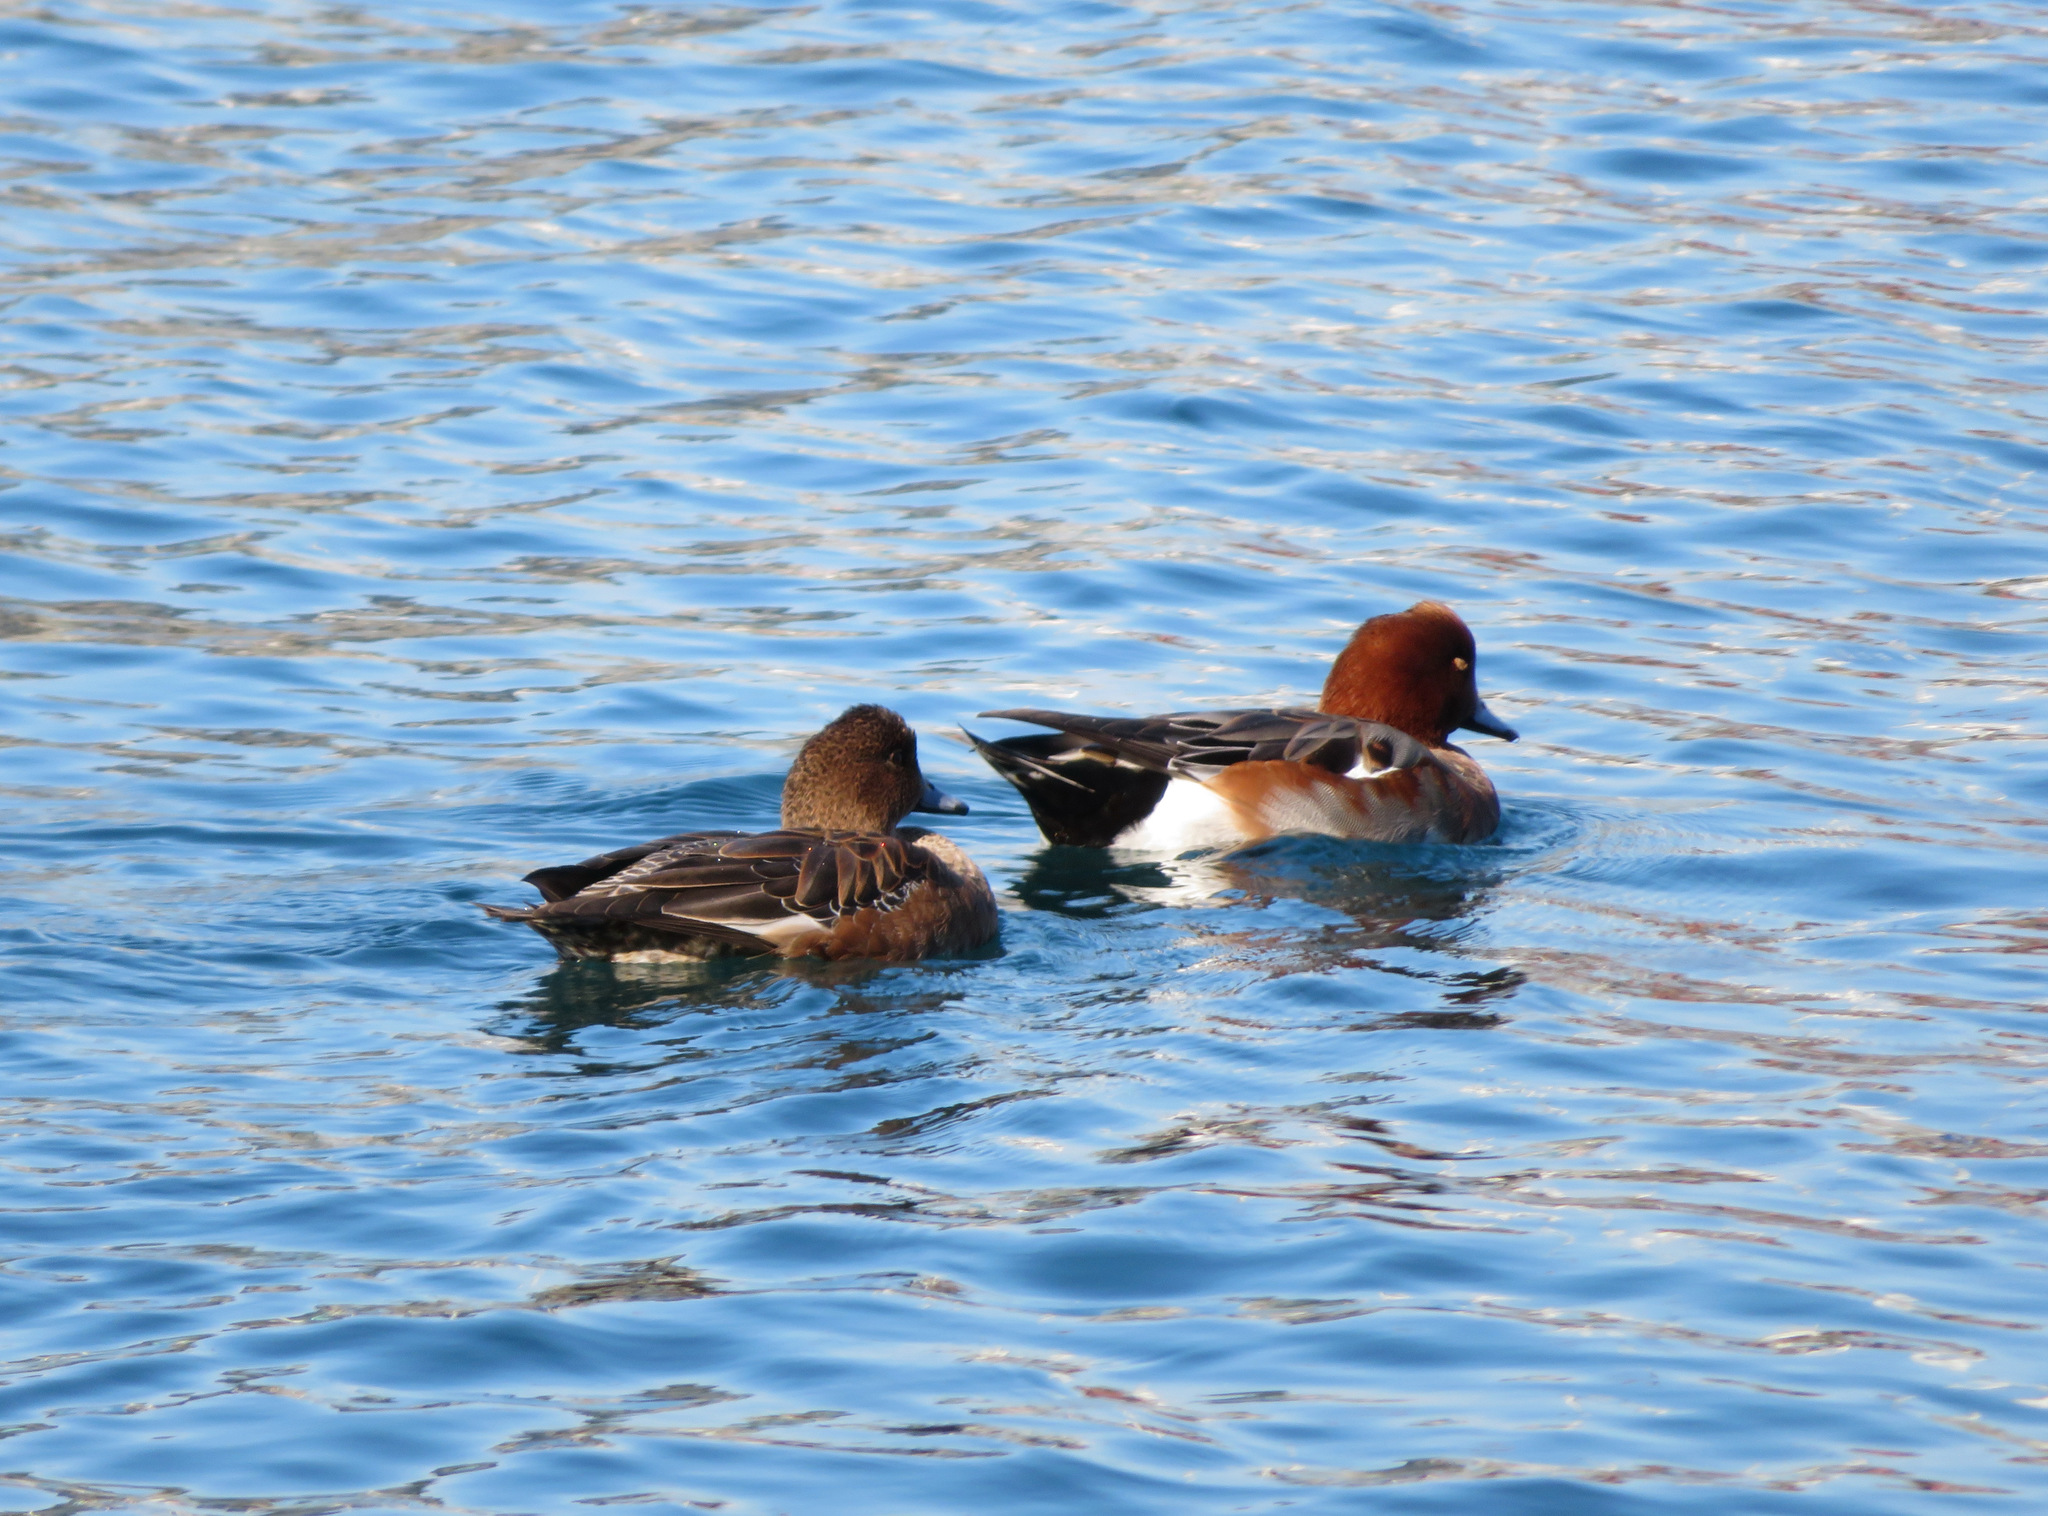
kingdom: Animalia
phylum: Chordata
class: Aves
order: Anseriformes
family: Anatidae
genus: Mareca
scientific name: Mareca penelope
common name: Eurasian wigeon
